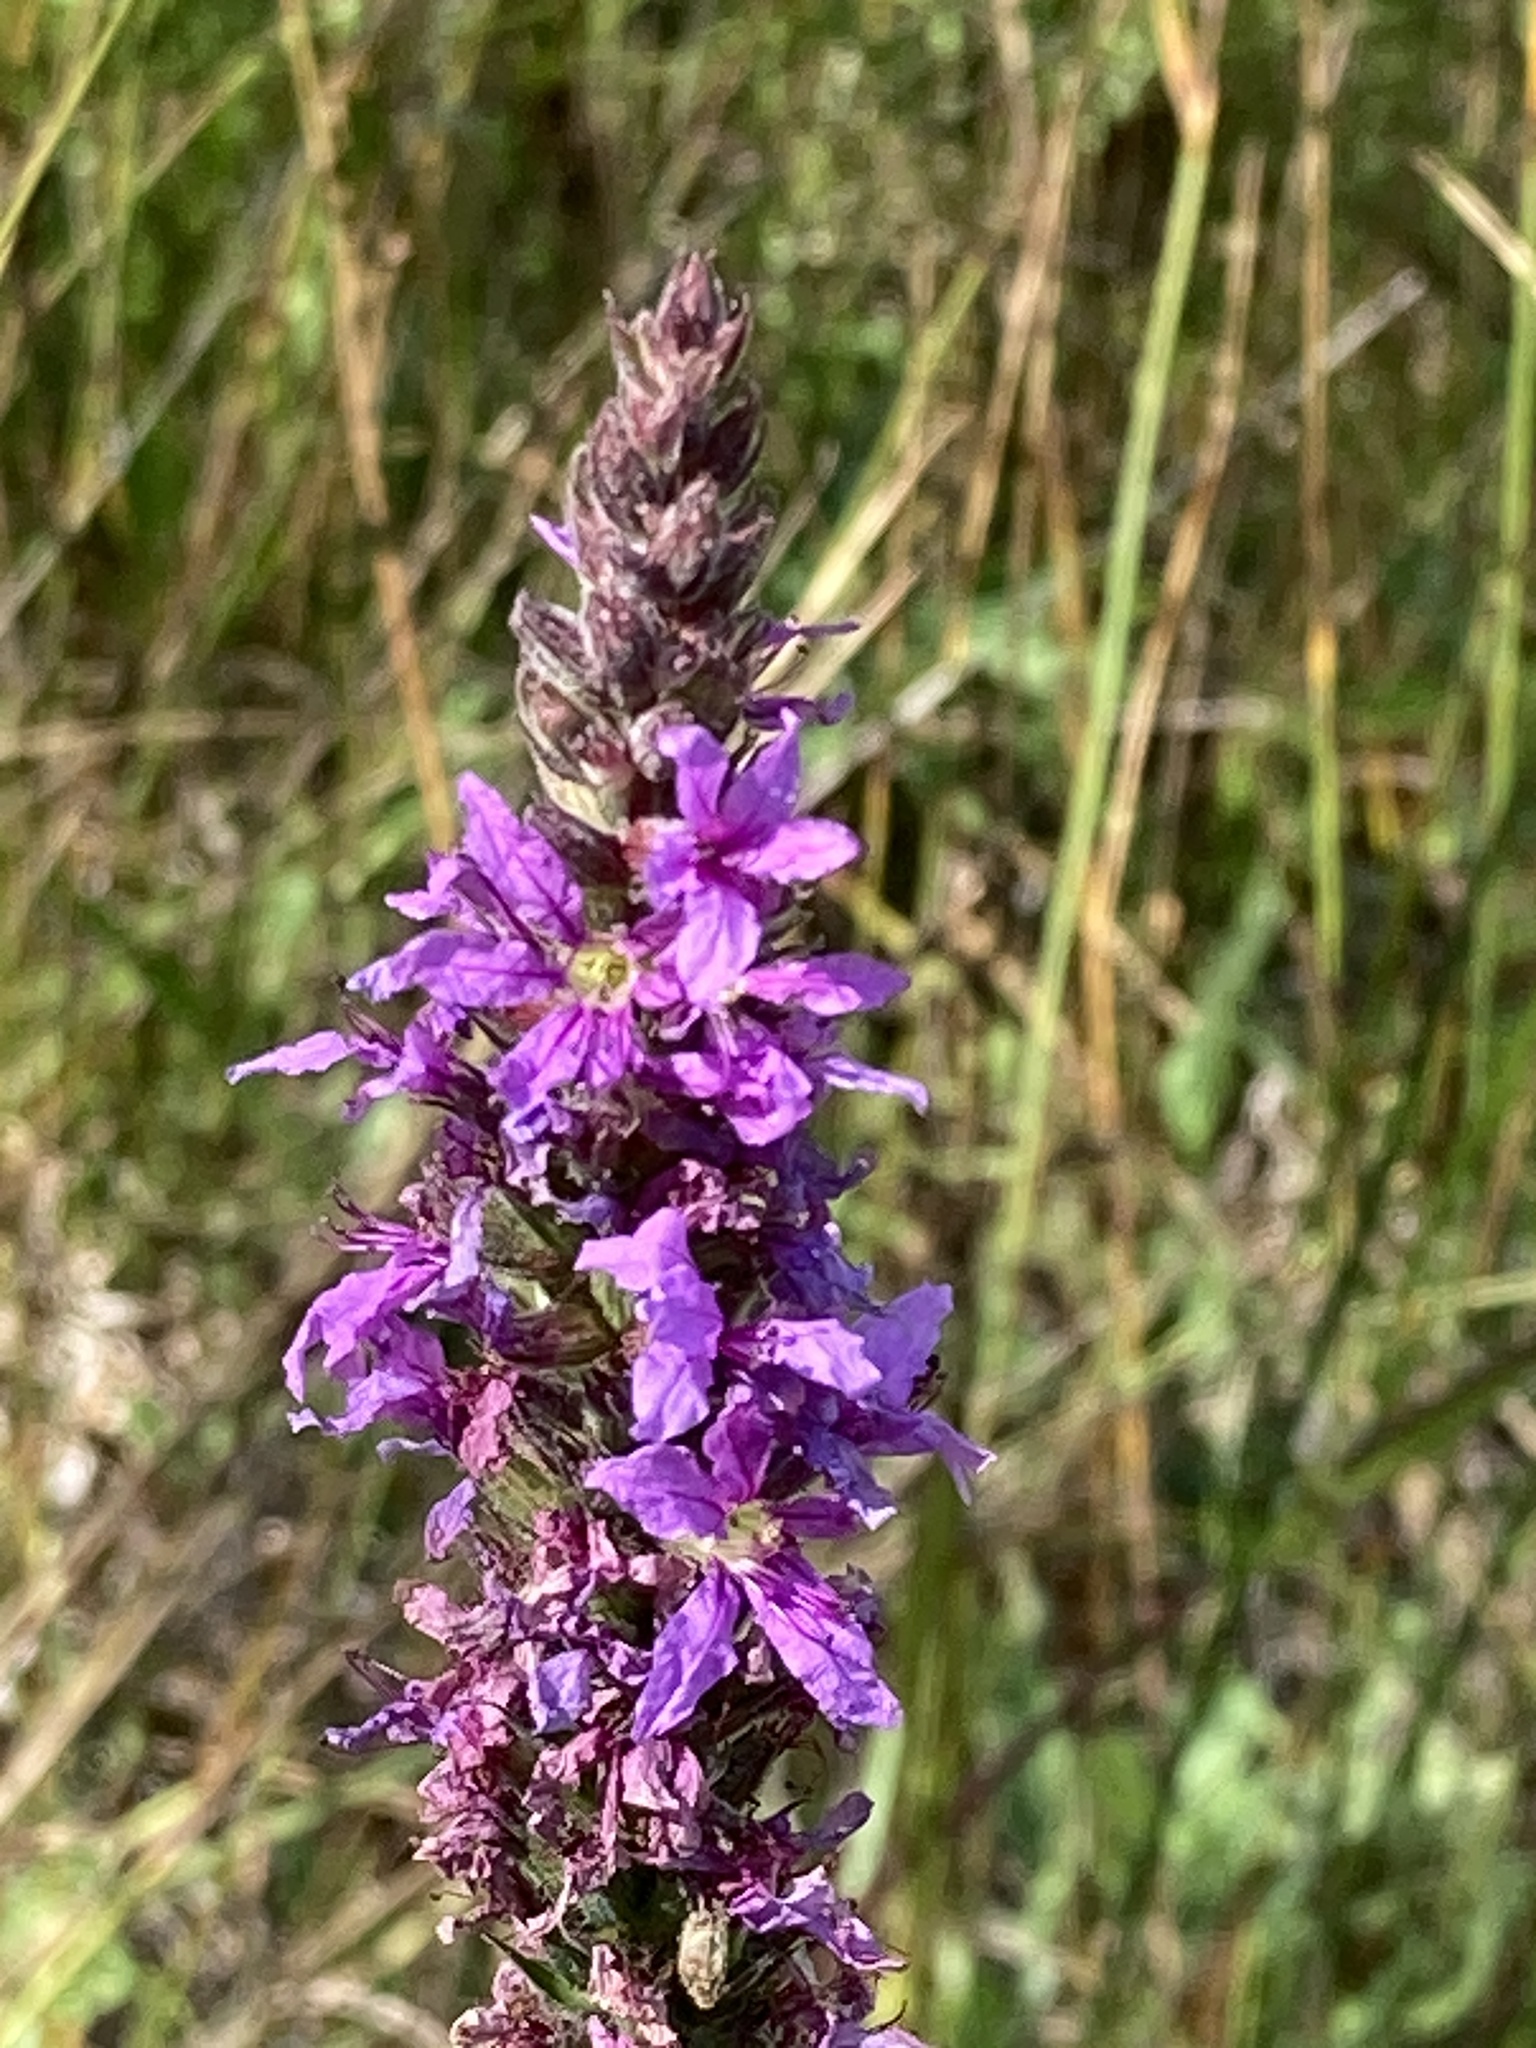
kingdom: Plantae
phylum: Tracheophyta
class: Magnoliopsida
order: Myrtales
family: Lythraceae
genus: Lythrum
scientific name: Lythrum salicaria
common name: Purple loosestrife
